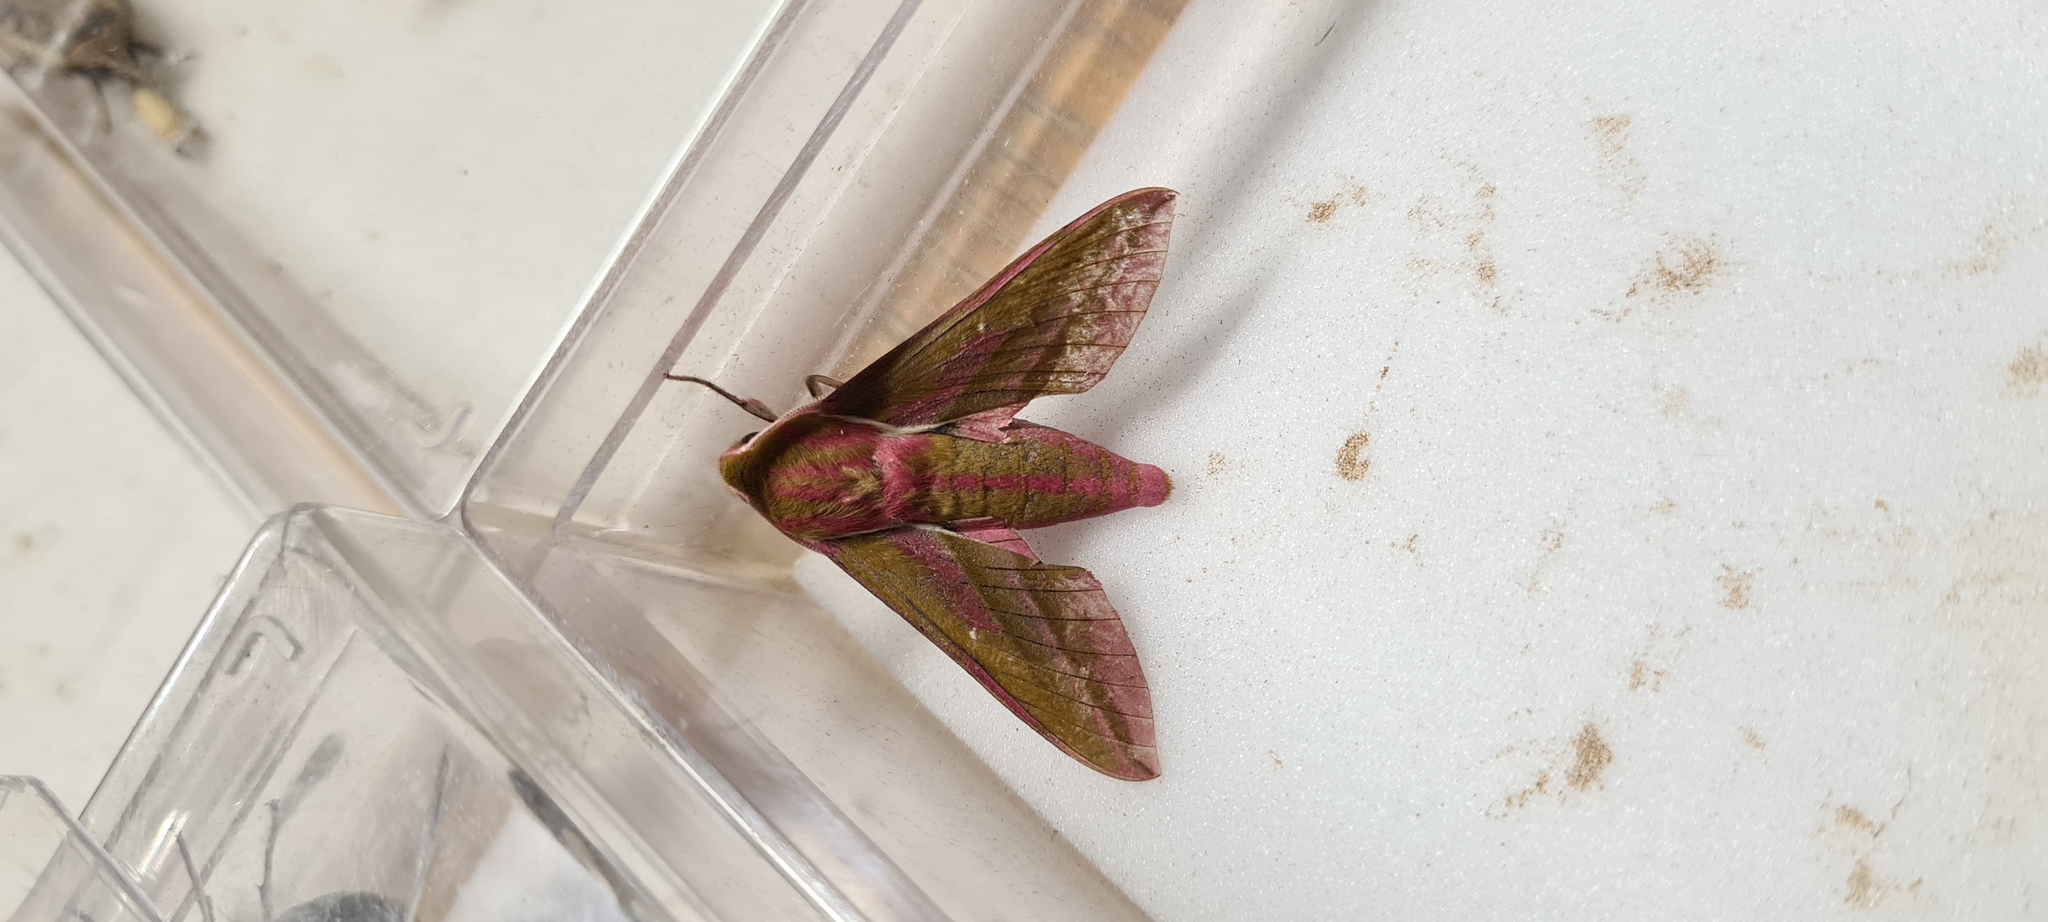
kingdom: Animalia
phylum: Arthropoda
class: Insecta
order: Lepidoptera
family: Sphingidae
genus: Deilephila
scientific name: Deilephila elpenor
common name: Elephant hawk-moth
